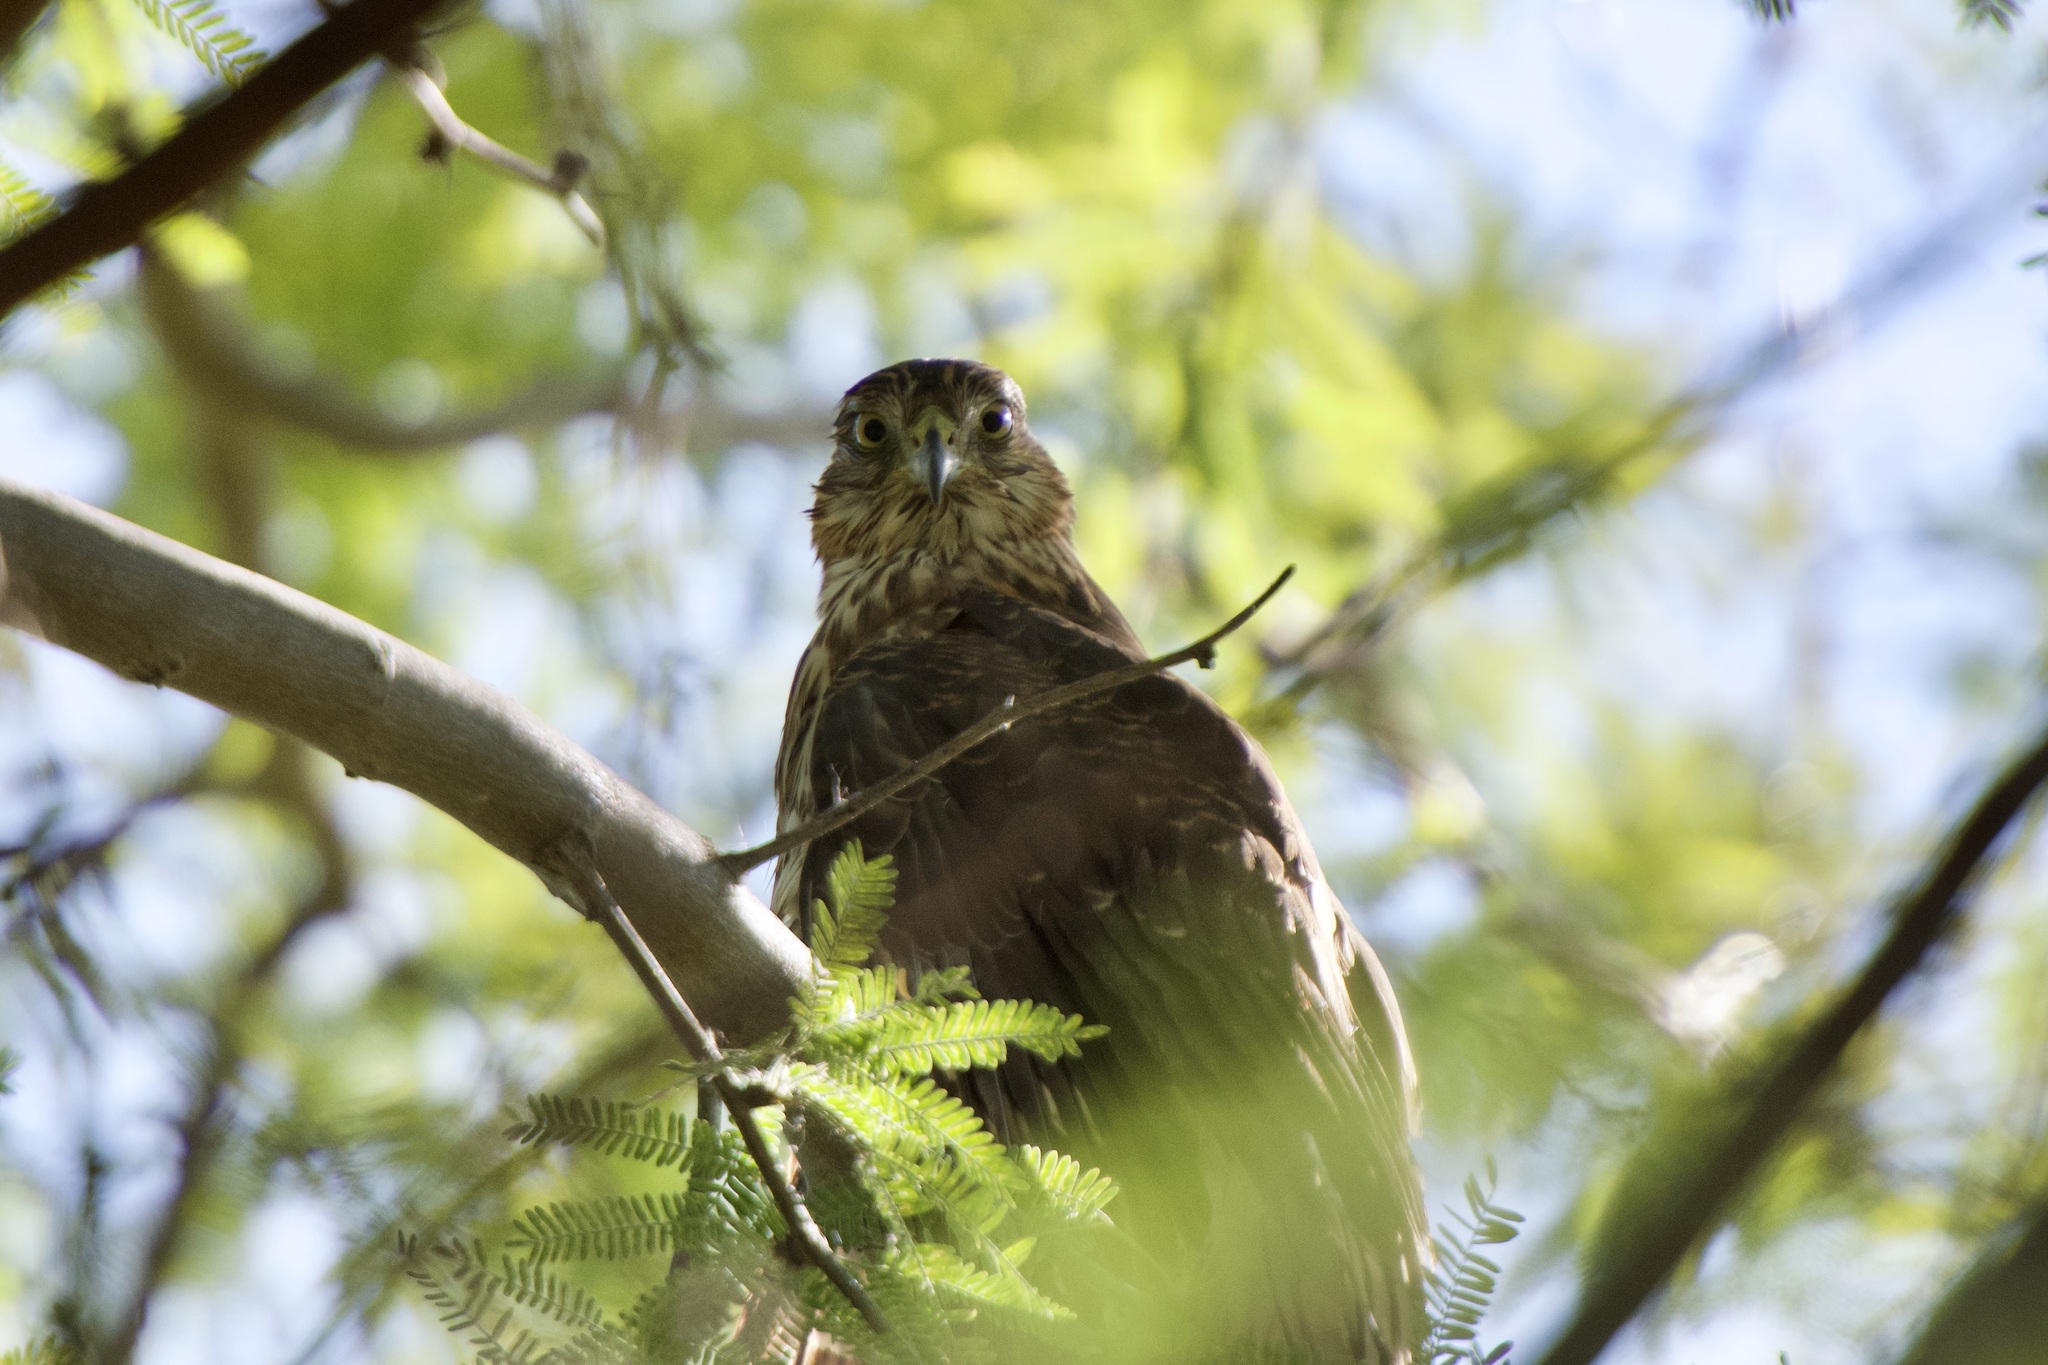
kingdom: Animalia
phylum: Chordata
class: Aves
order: Accipitriformes
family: Accipitridae
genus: Accipiter
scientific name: Accipiter cooperii
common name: Cooper's hawk
